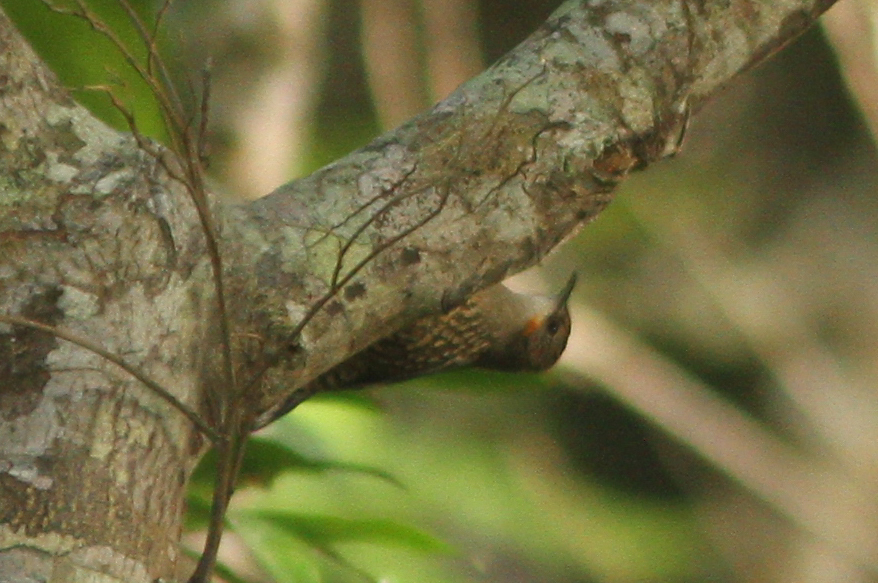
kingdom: Animalia
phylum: Chordata
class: Aves
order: Passeriformes
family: Climacteridae
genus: Cormobates
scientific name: Cormobates leucophaea
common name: White-throated treecreeper
